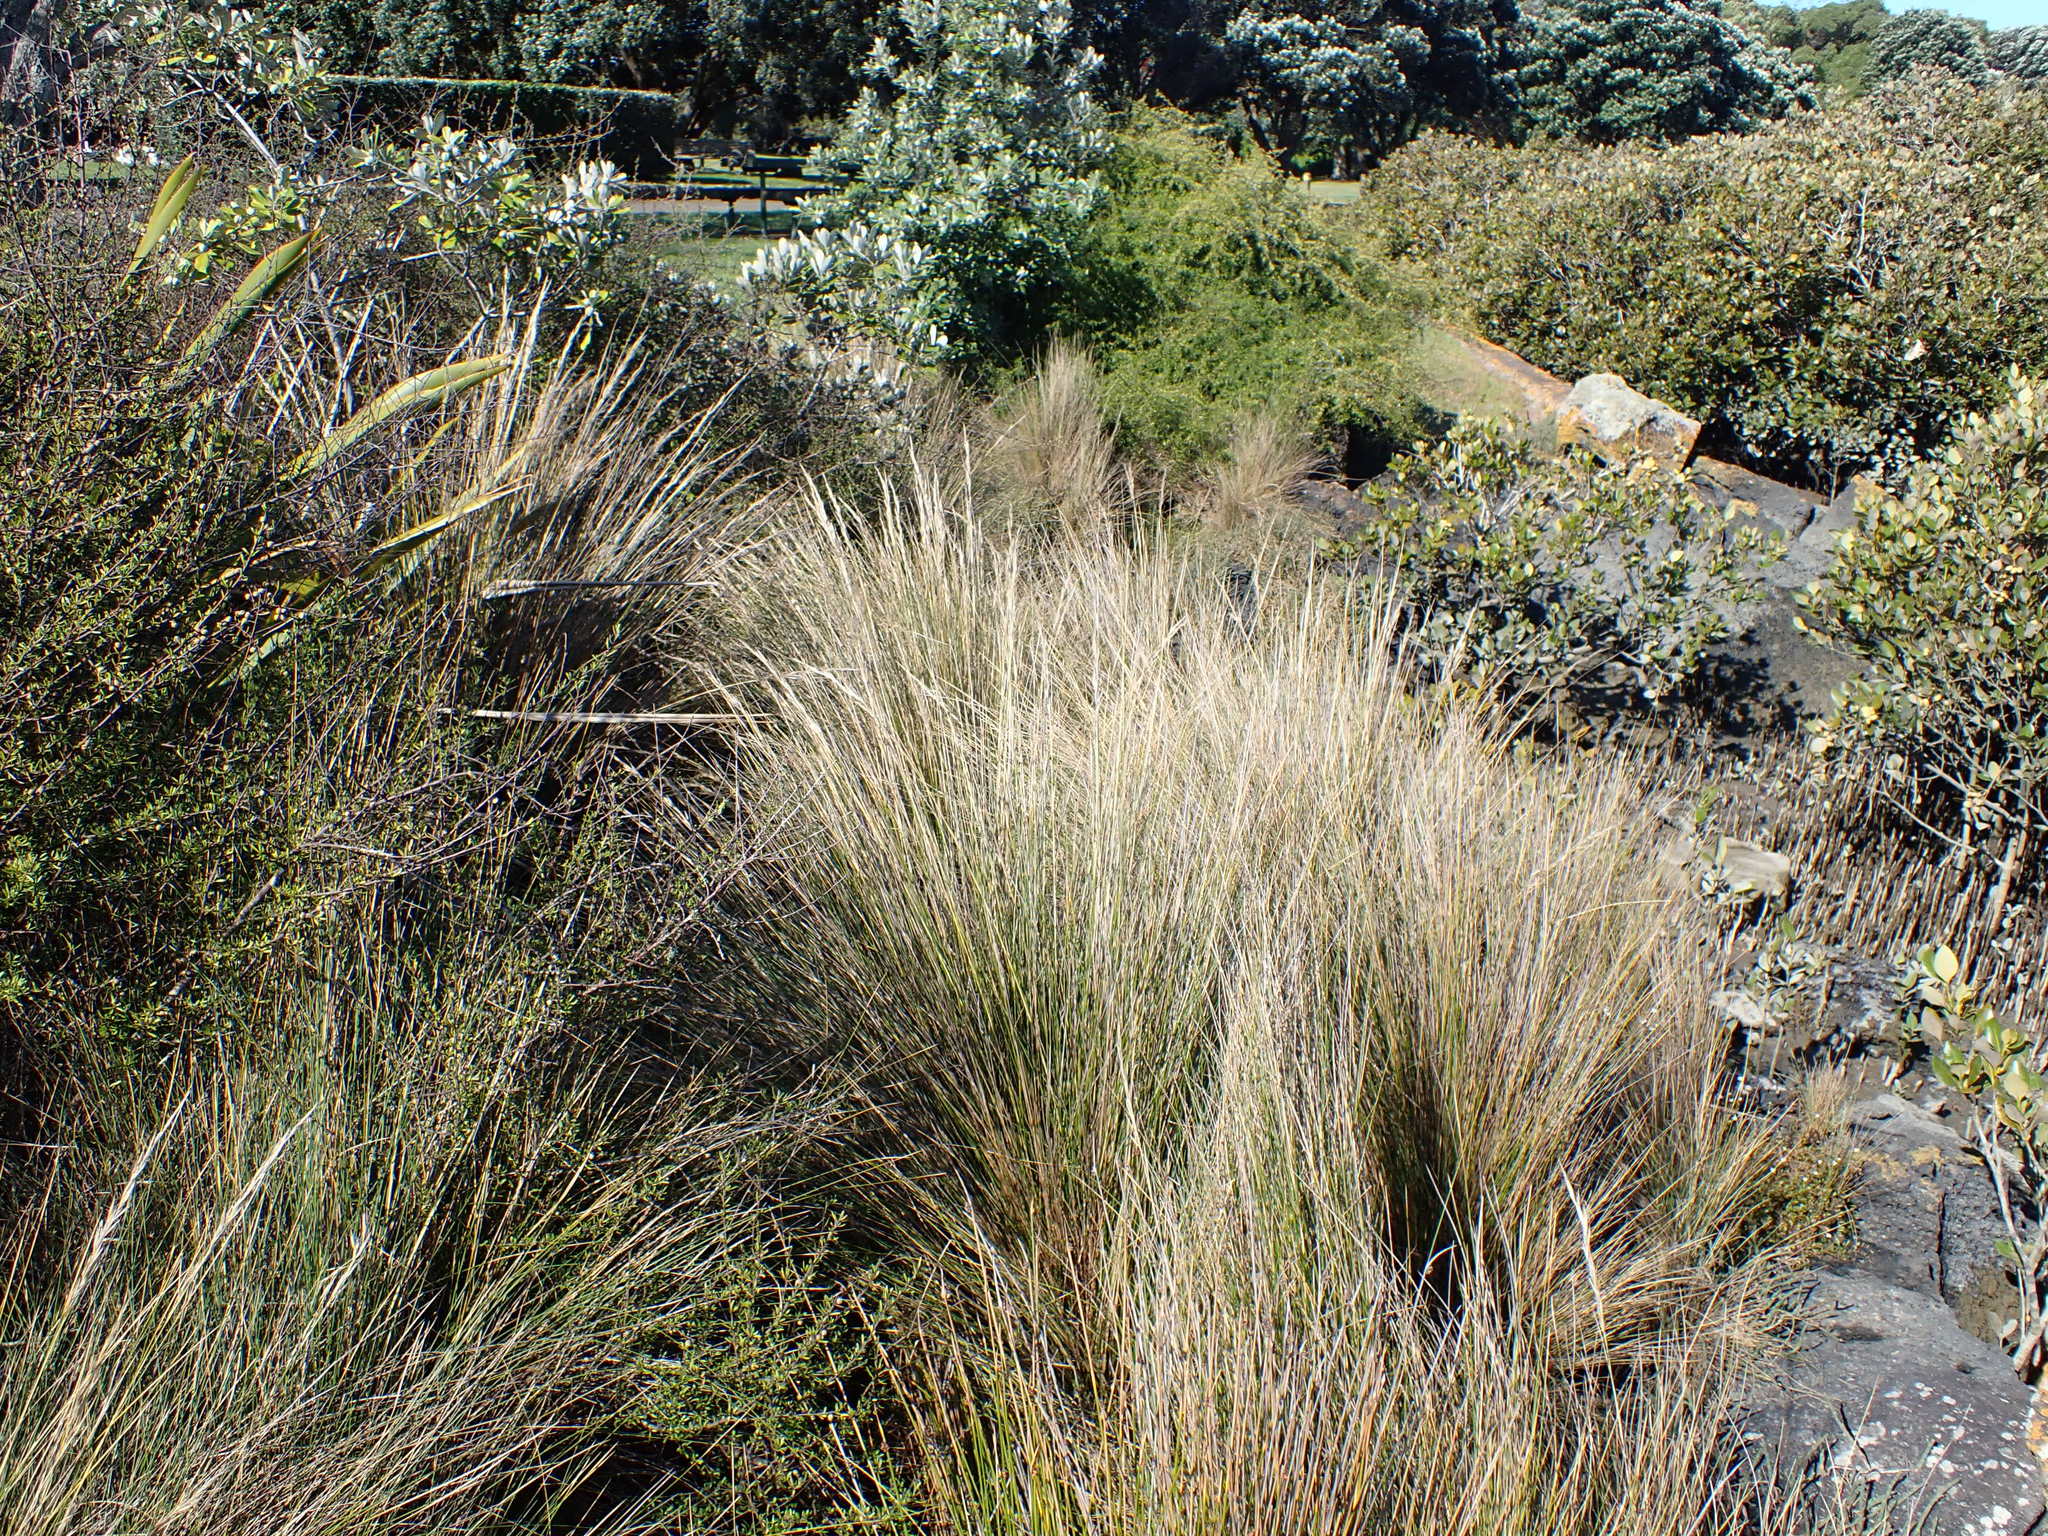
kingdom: Plantae
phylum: Tracheophyta
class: Liliopsida
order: Poales
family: Poaceae
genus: Austrostipa
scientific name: Austrostipa stipoides
